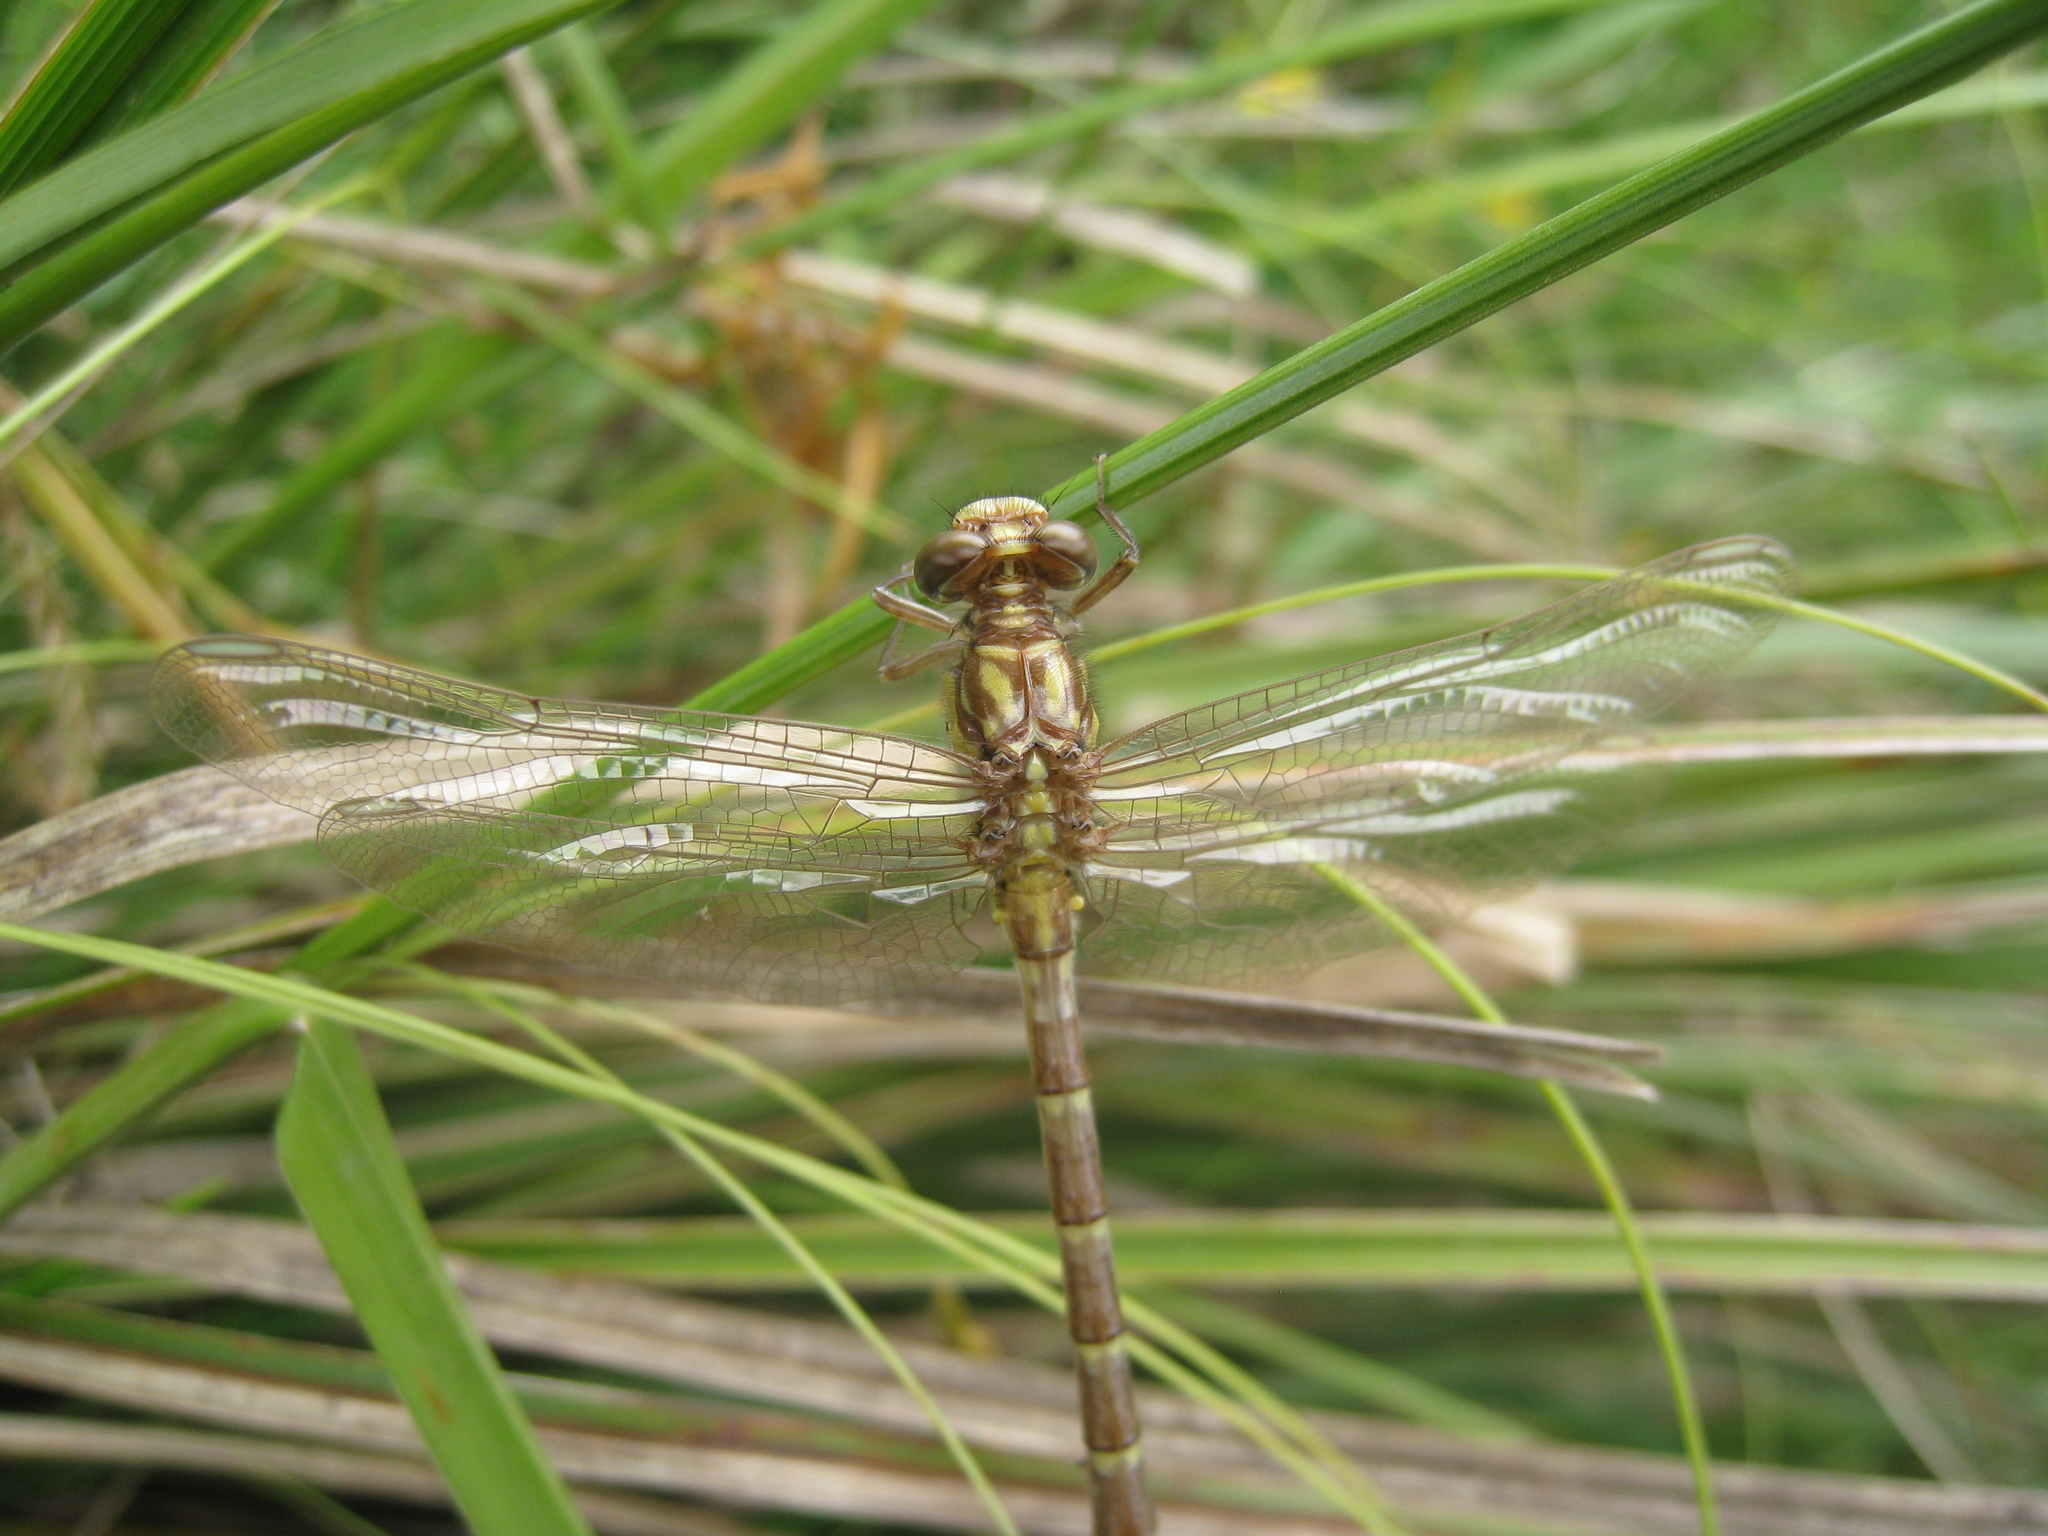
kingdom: Animalia
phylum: Arthropoda
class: Insecta
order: Odonata
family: Gomphidae
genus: Hemigomphus
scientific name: Hemigomphus gouldii
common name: Southern vicetail
